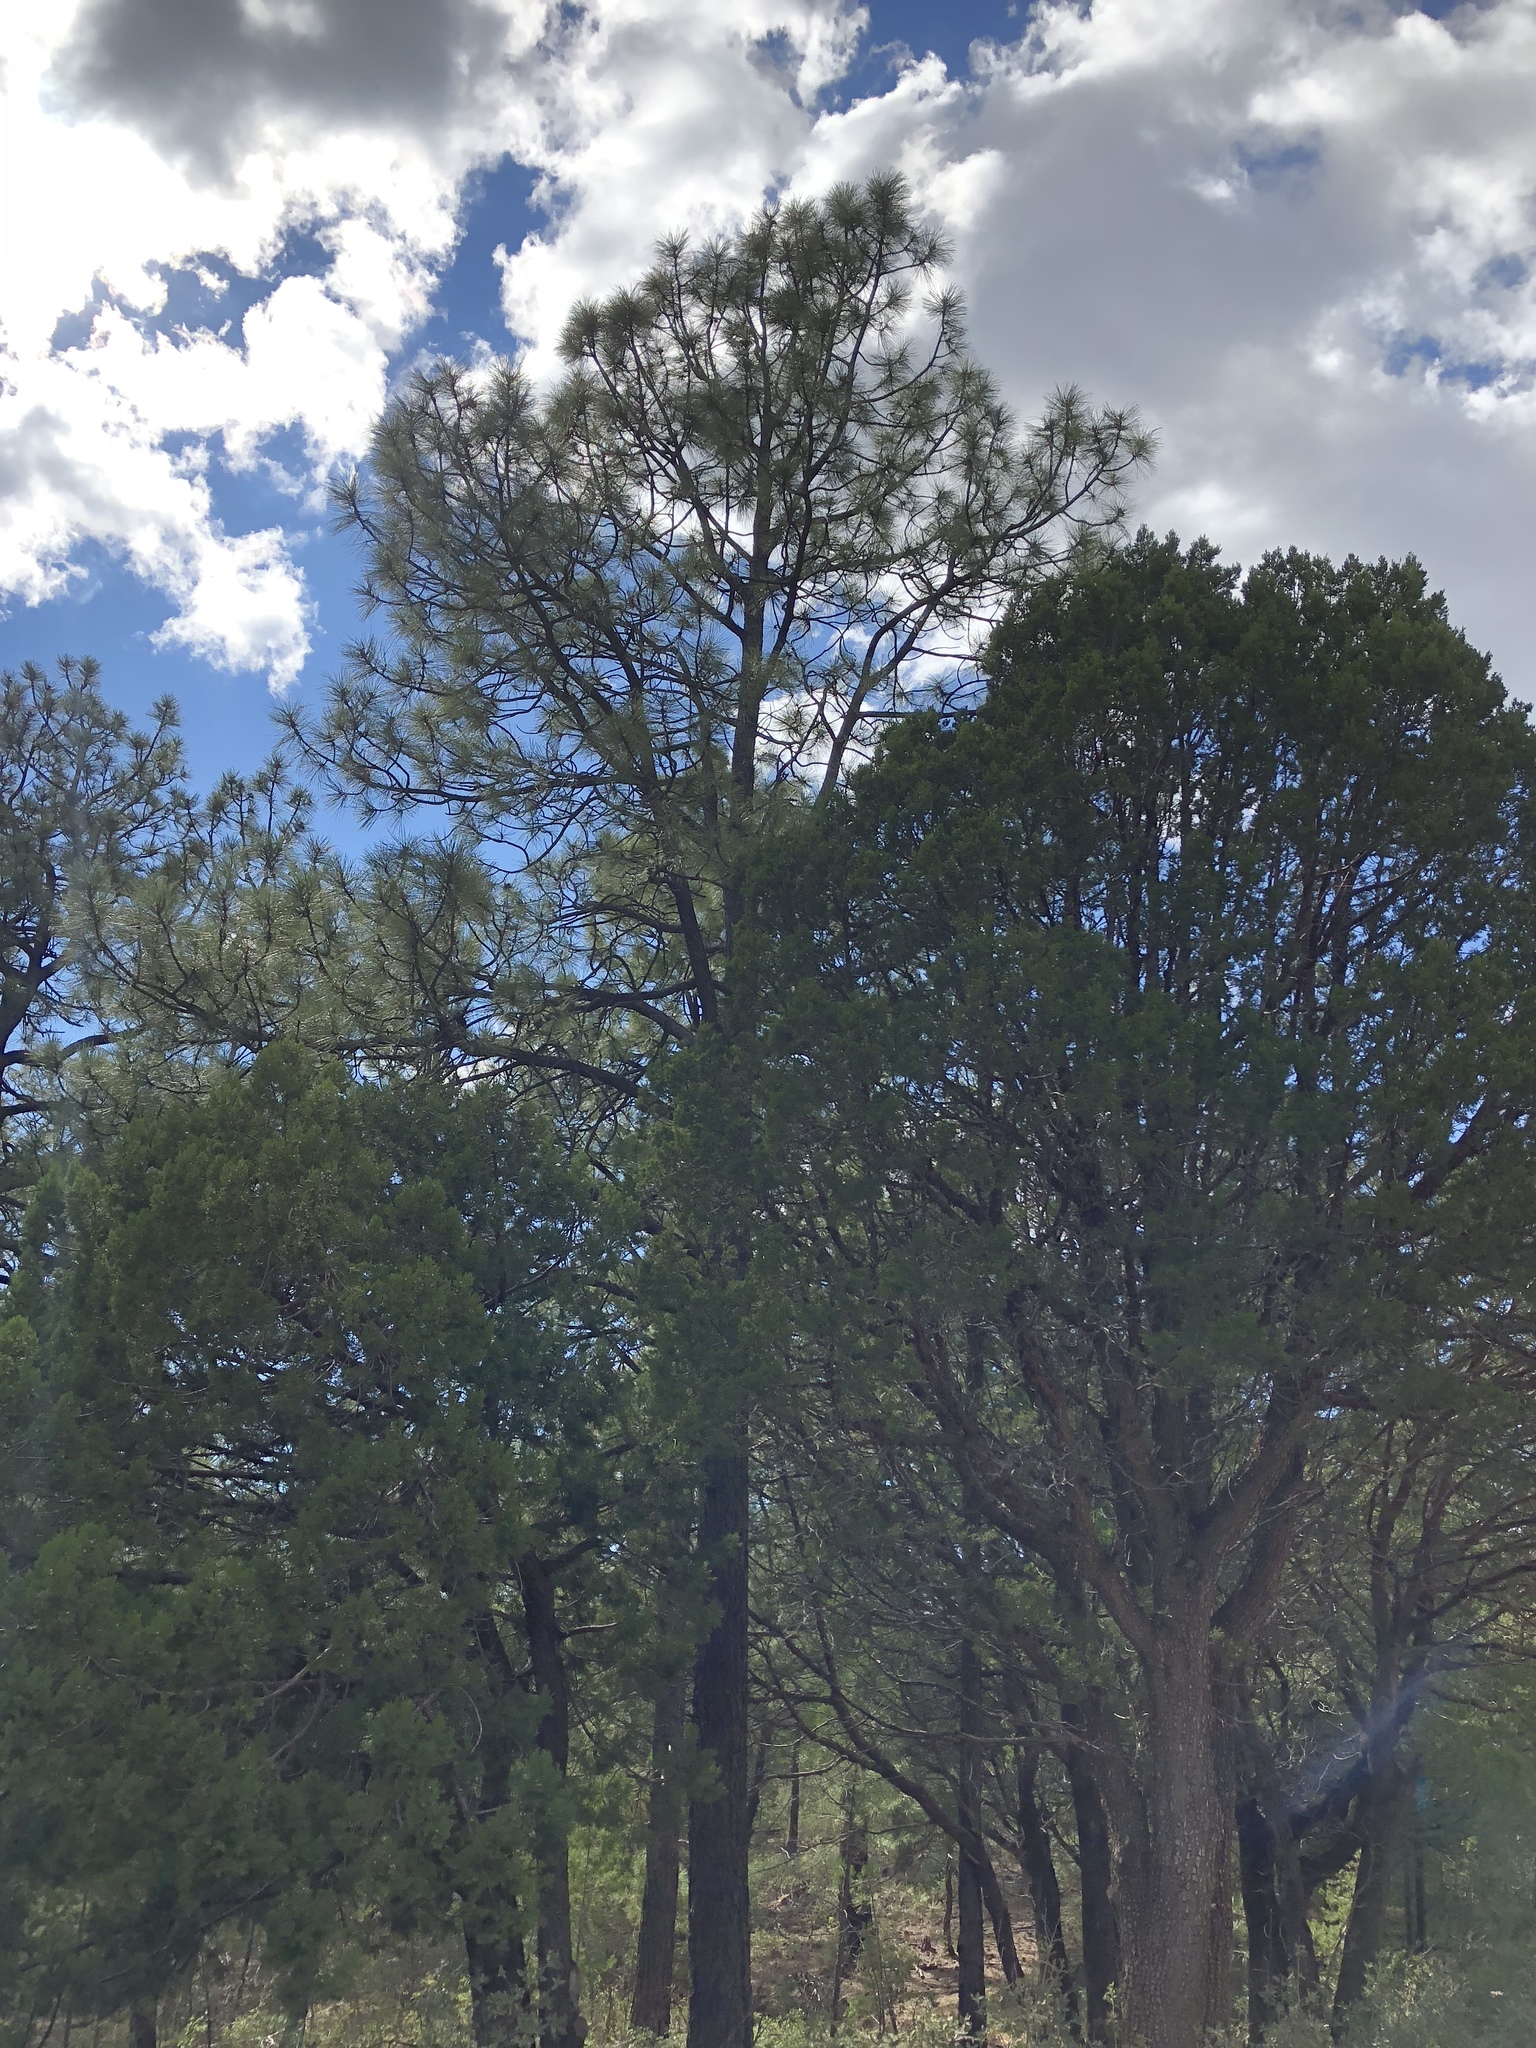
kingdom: Plantae
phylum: Tracheophyta
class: Pinopsida
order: Pinales
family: Pinaceae
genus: Pinus
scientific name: Pinus ponderosa
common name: Western yellow-pine
